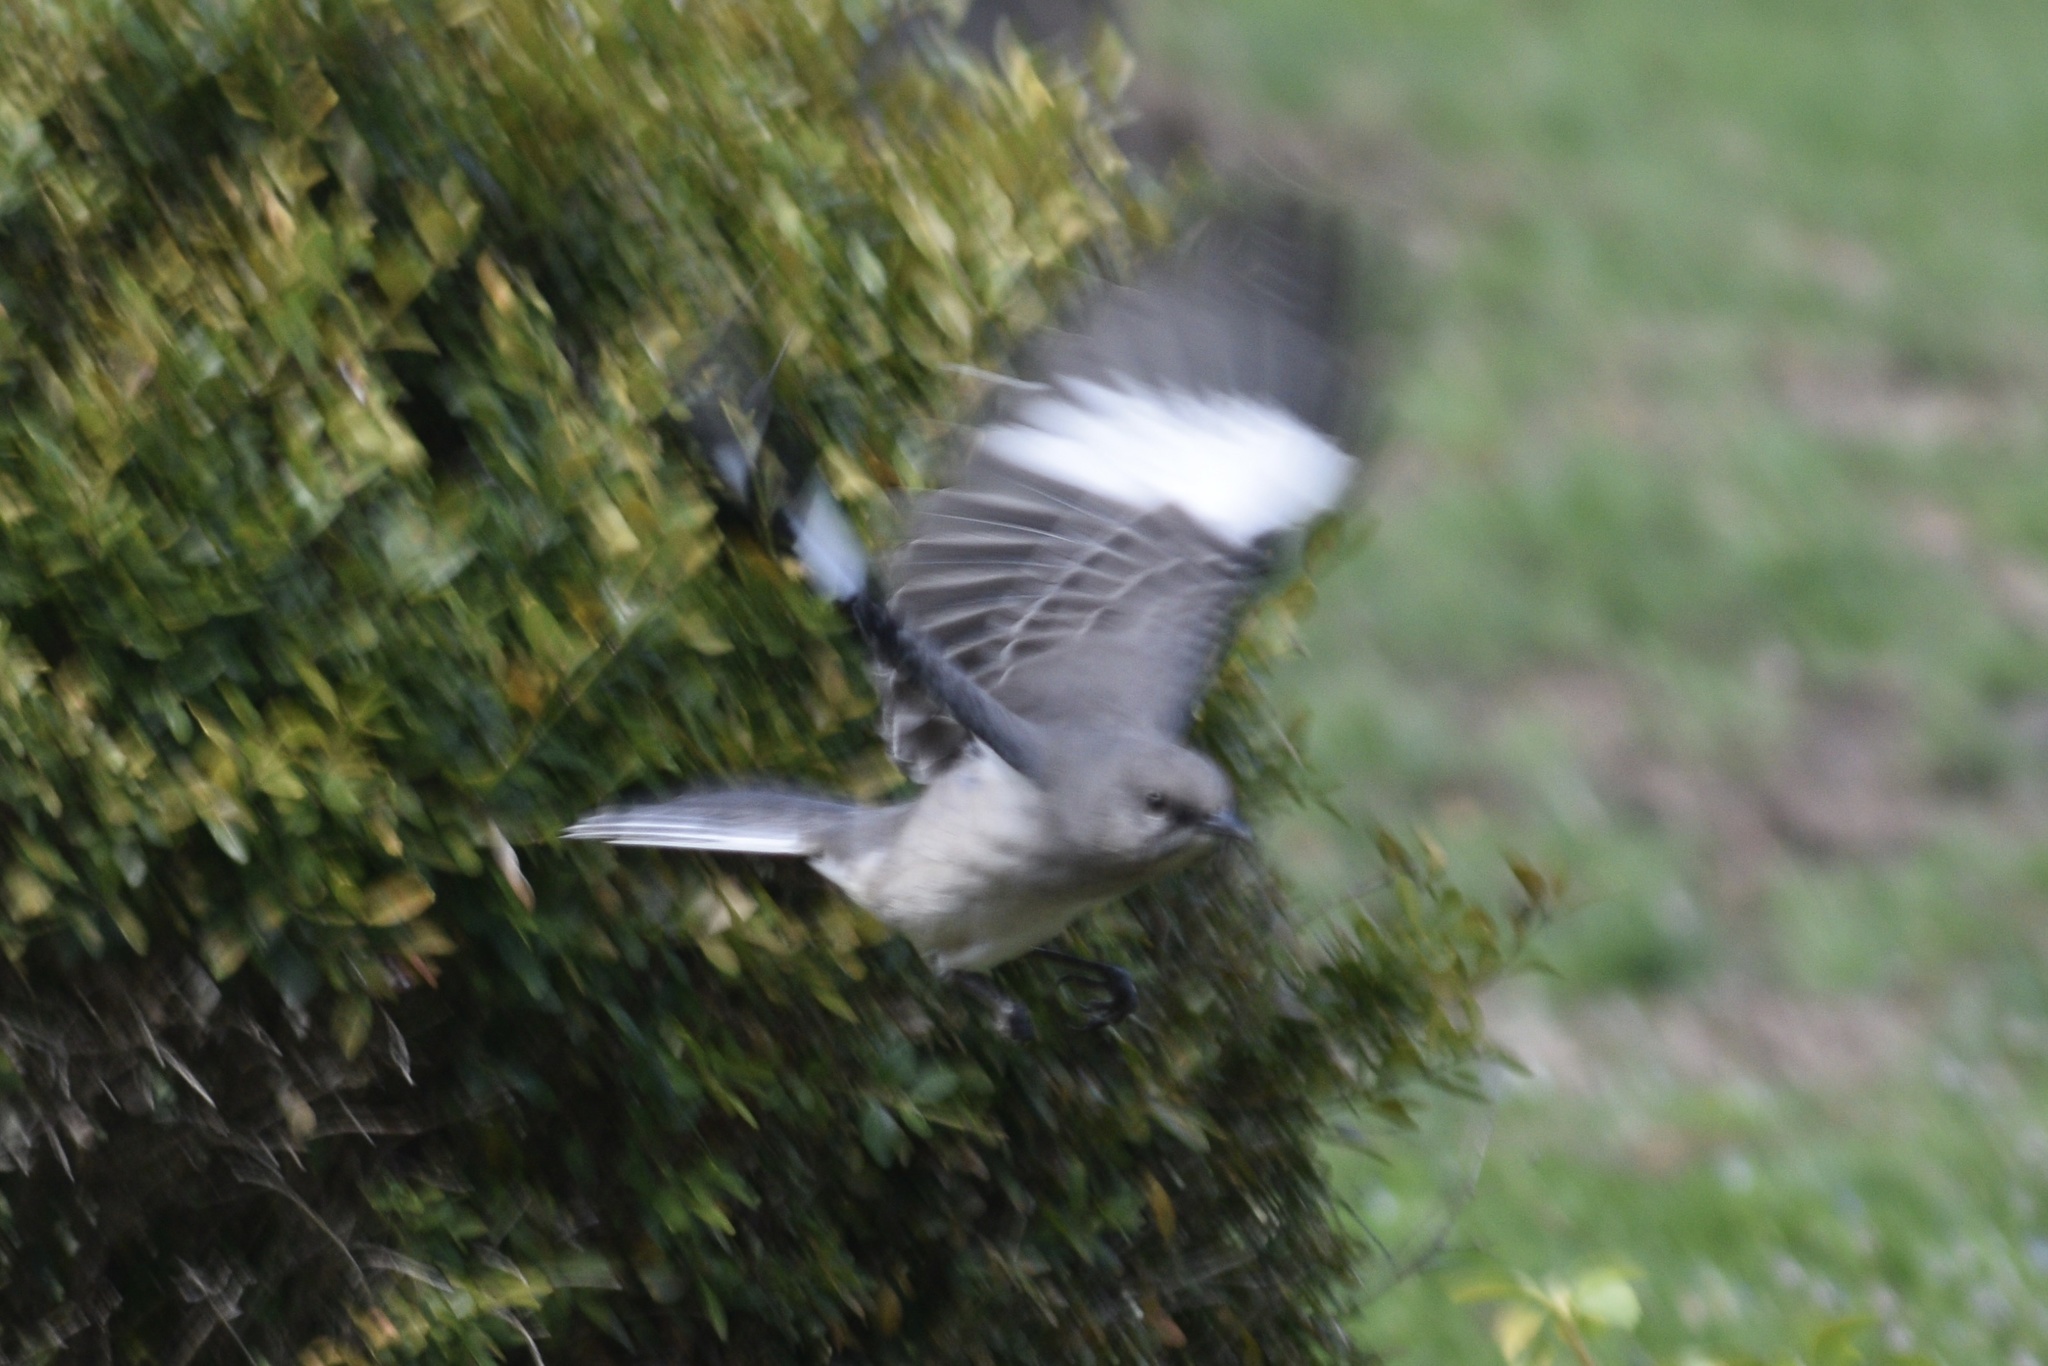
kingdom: Animalia
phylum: Chordata
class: Aves
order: Passeriformes
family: Mimidae
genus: Mimus
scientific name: Mimus polyglottos
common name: Northern mockingbird
